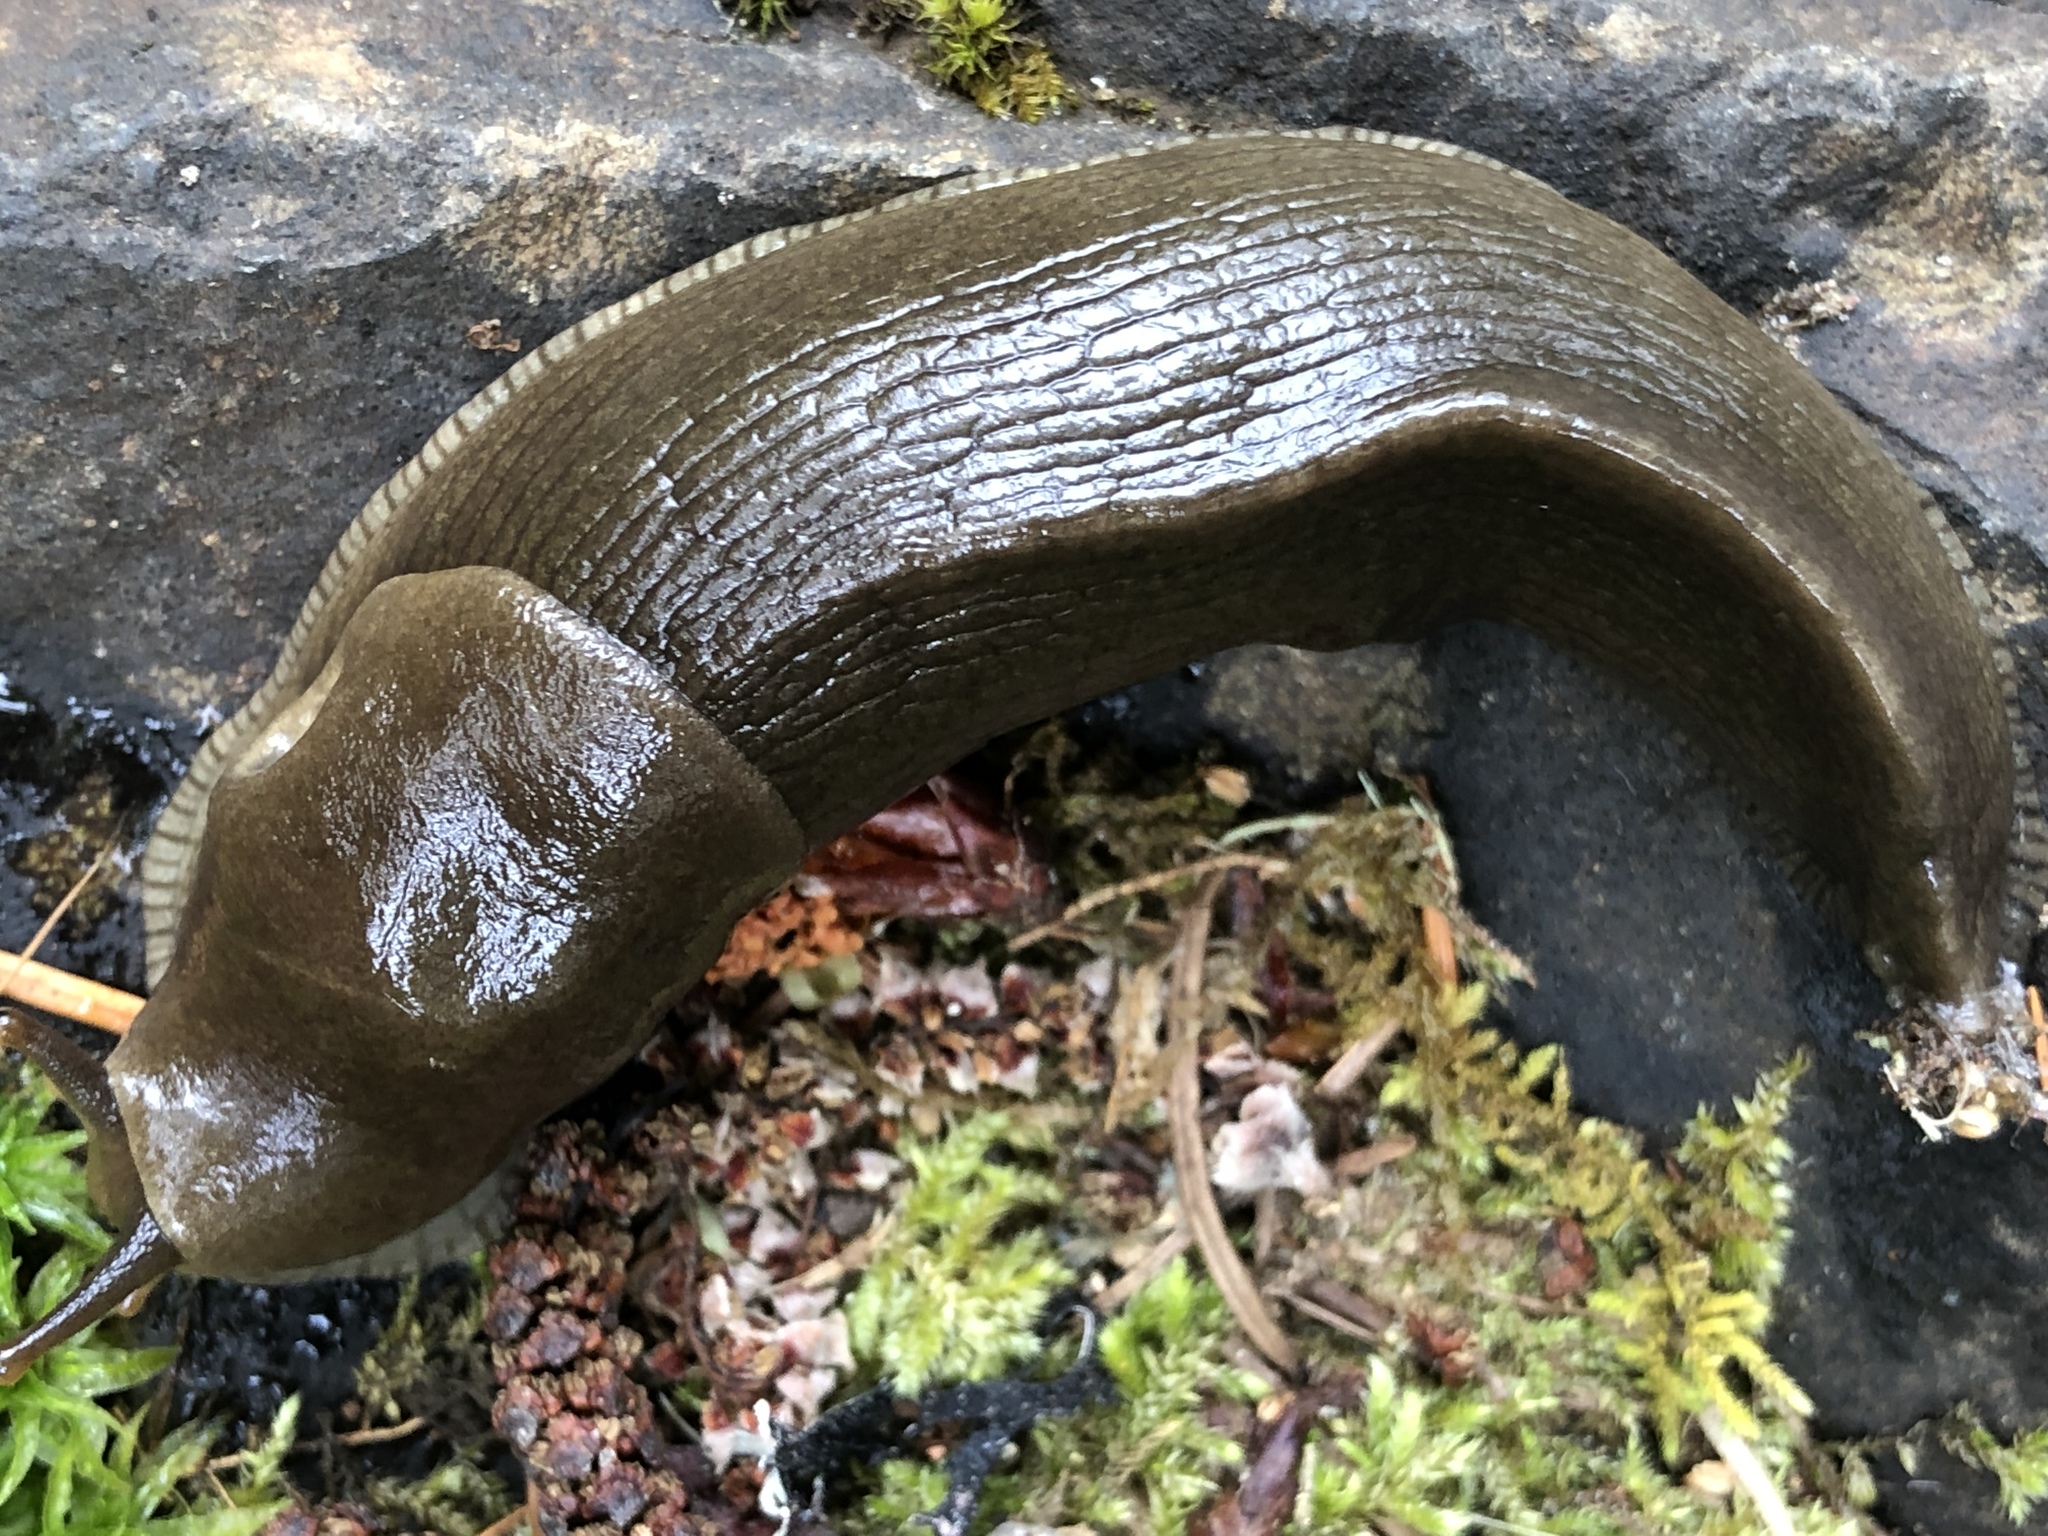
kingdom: Animalia
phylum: Mollusca
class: Gastropoda
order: Stylommatophora
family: Ariolimacidae
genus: Ariolimax
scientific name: Ariolimax columbianus
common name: Pacific banana slug
